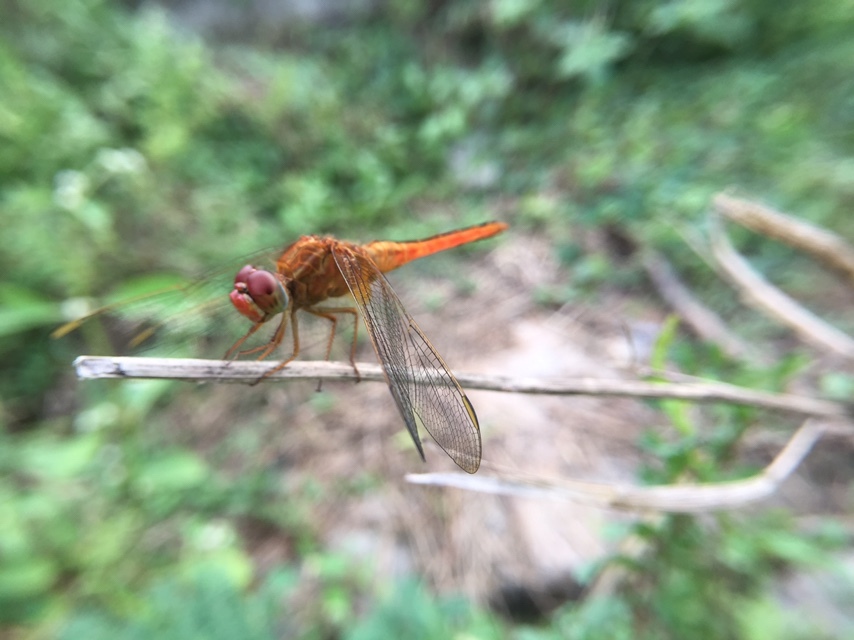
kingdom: Animalia
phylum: Arthropoda
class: Insecta
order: Odonata
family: Libellulidae
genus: Crocothemis
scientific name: Crocothemis servilia
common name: Scarlet skimmer
